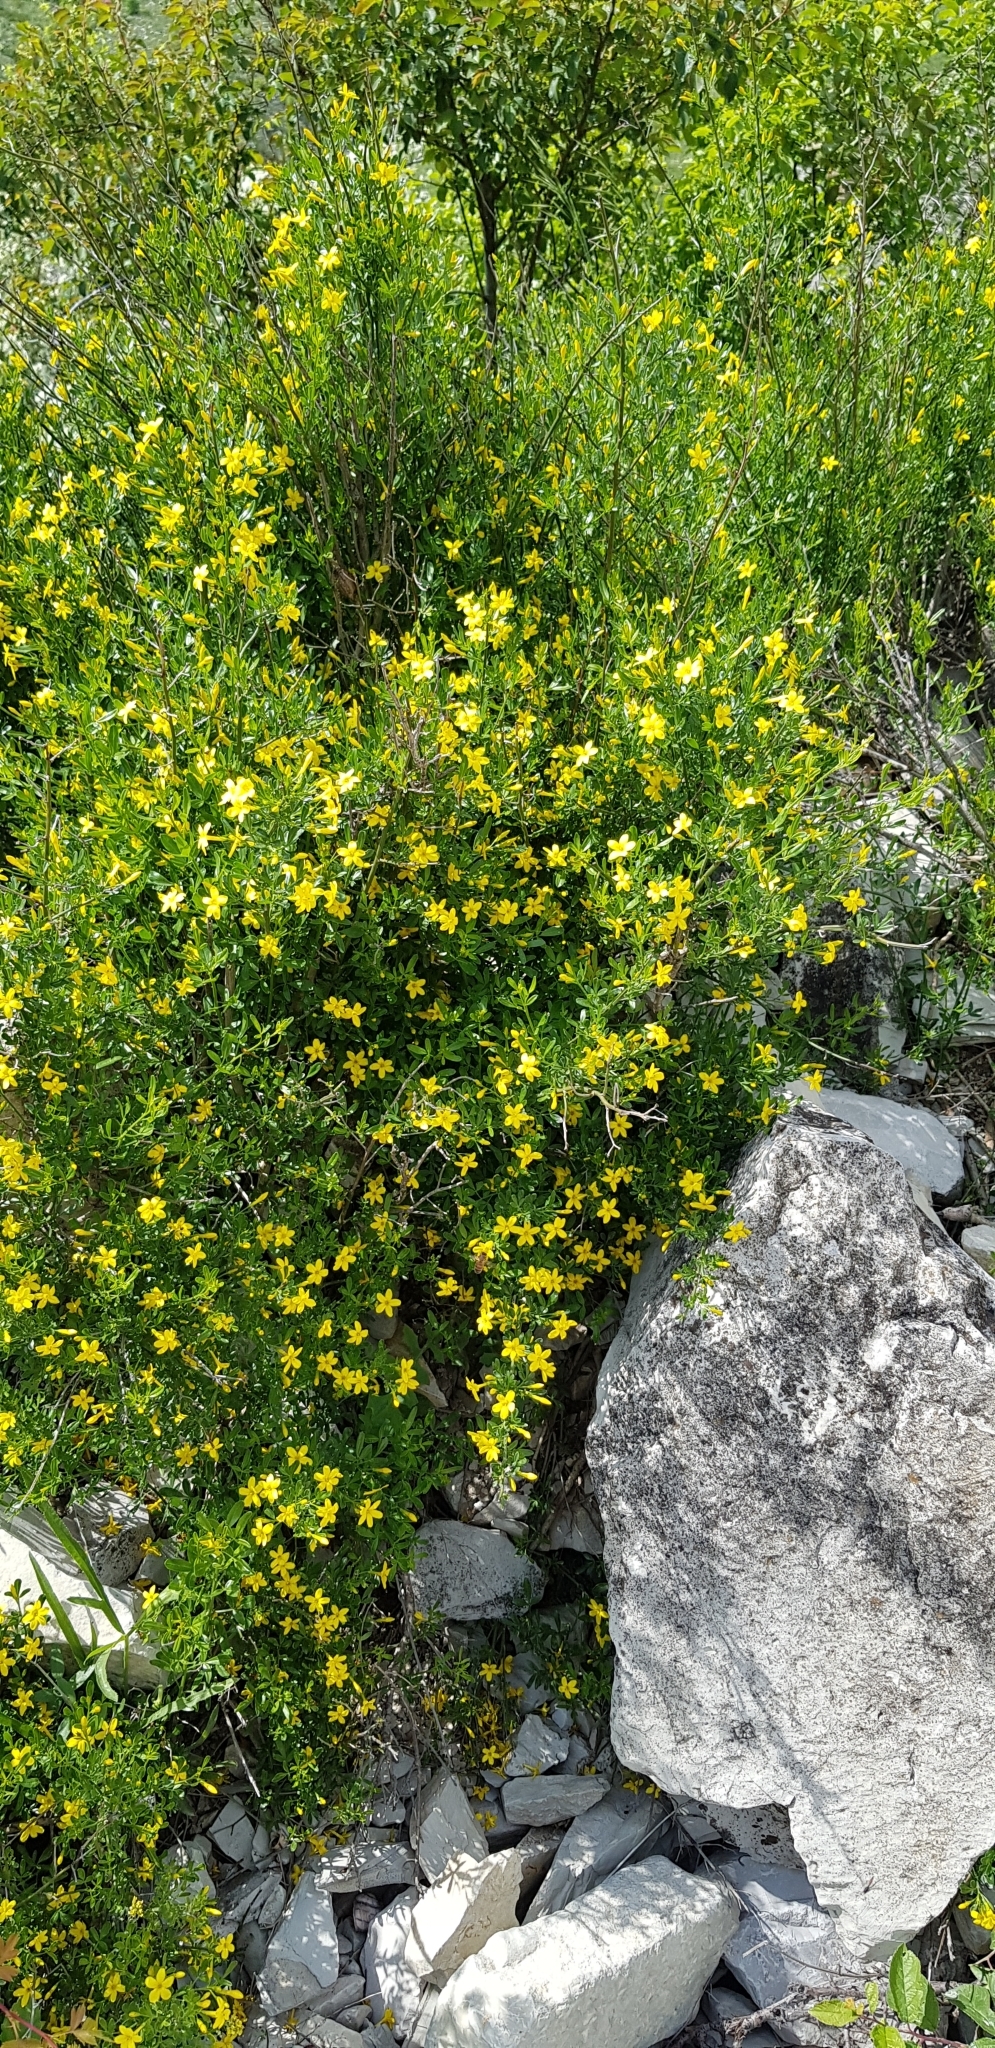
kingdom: Plantae
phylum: Tracheophyta
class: Magnoliopsida
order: Lamiales
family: Oleaceae
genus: Chrysojasminum
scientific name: Chrysojasminum fruticans
